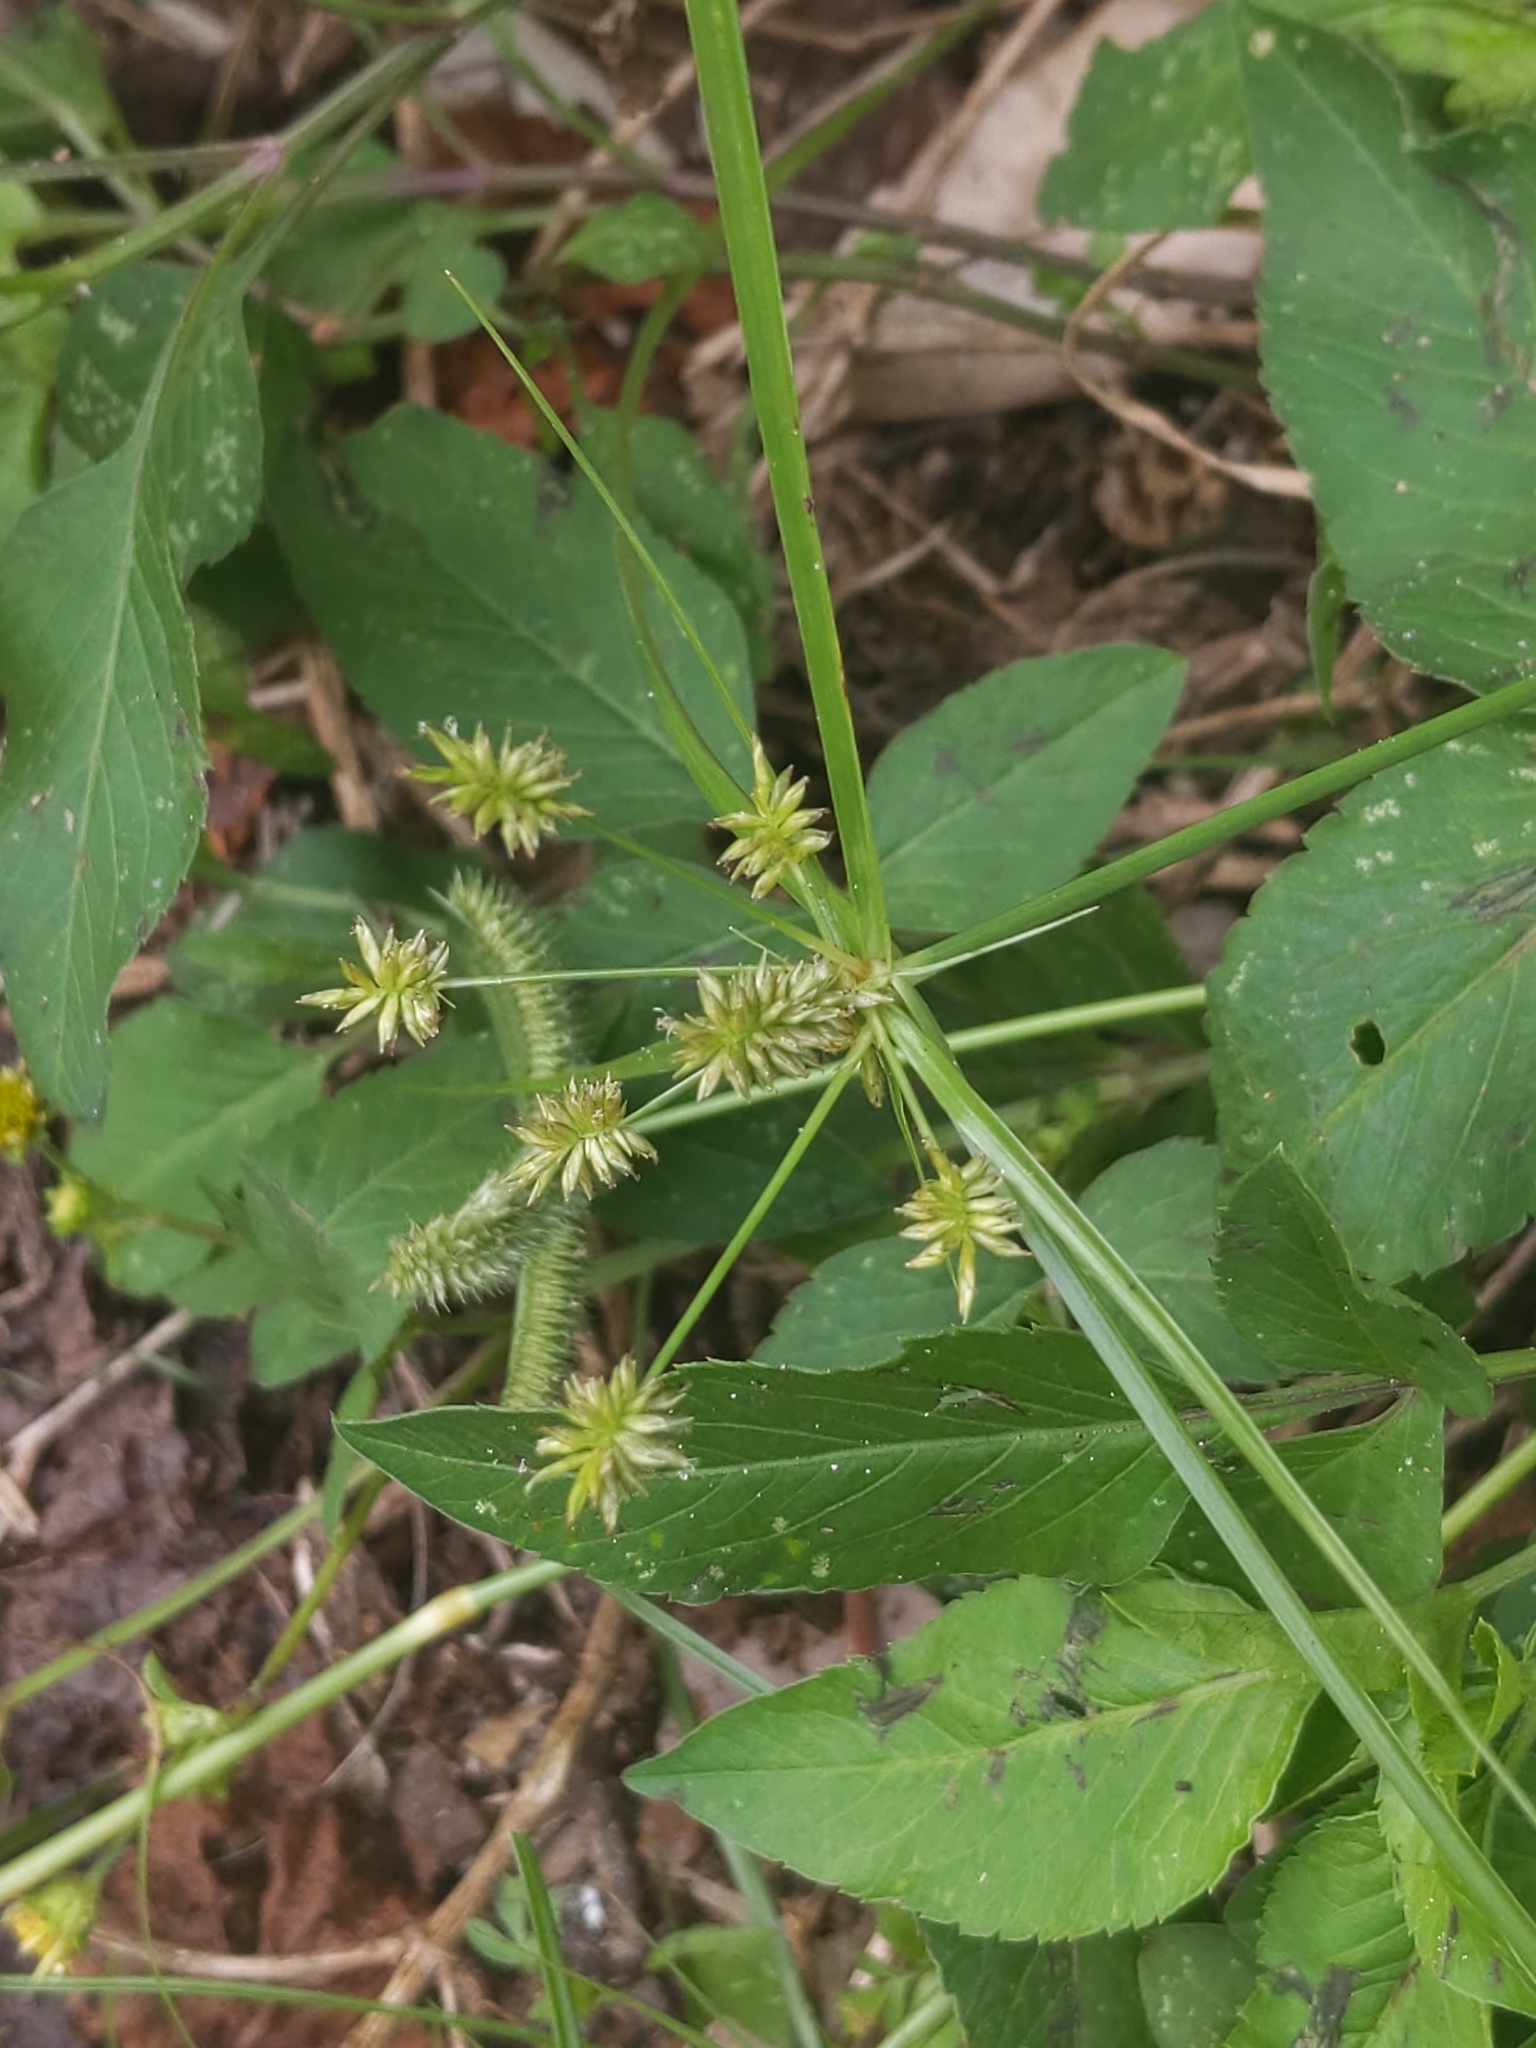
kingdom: Plantae
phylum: Tracheophyta
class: Liliopsida
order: Poales
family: Cyperaceae
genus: Cyperus
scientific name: Cyperus croceus
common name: Baldwin's flatsedge
